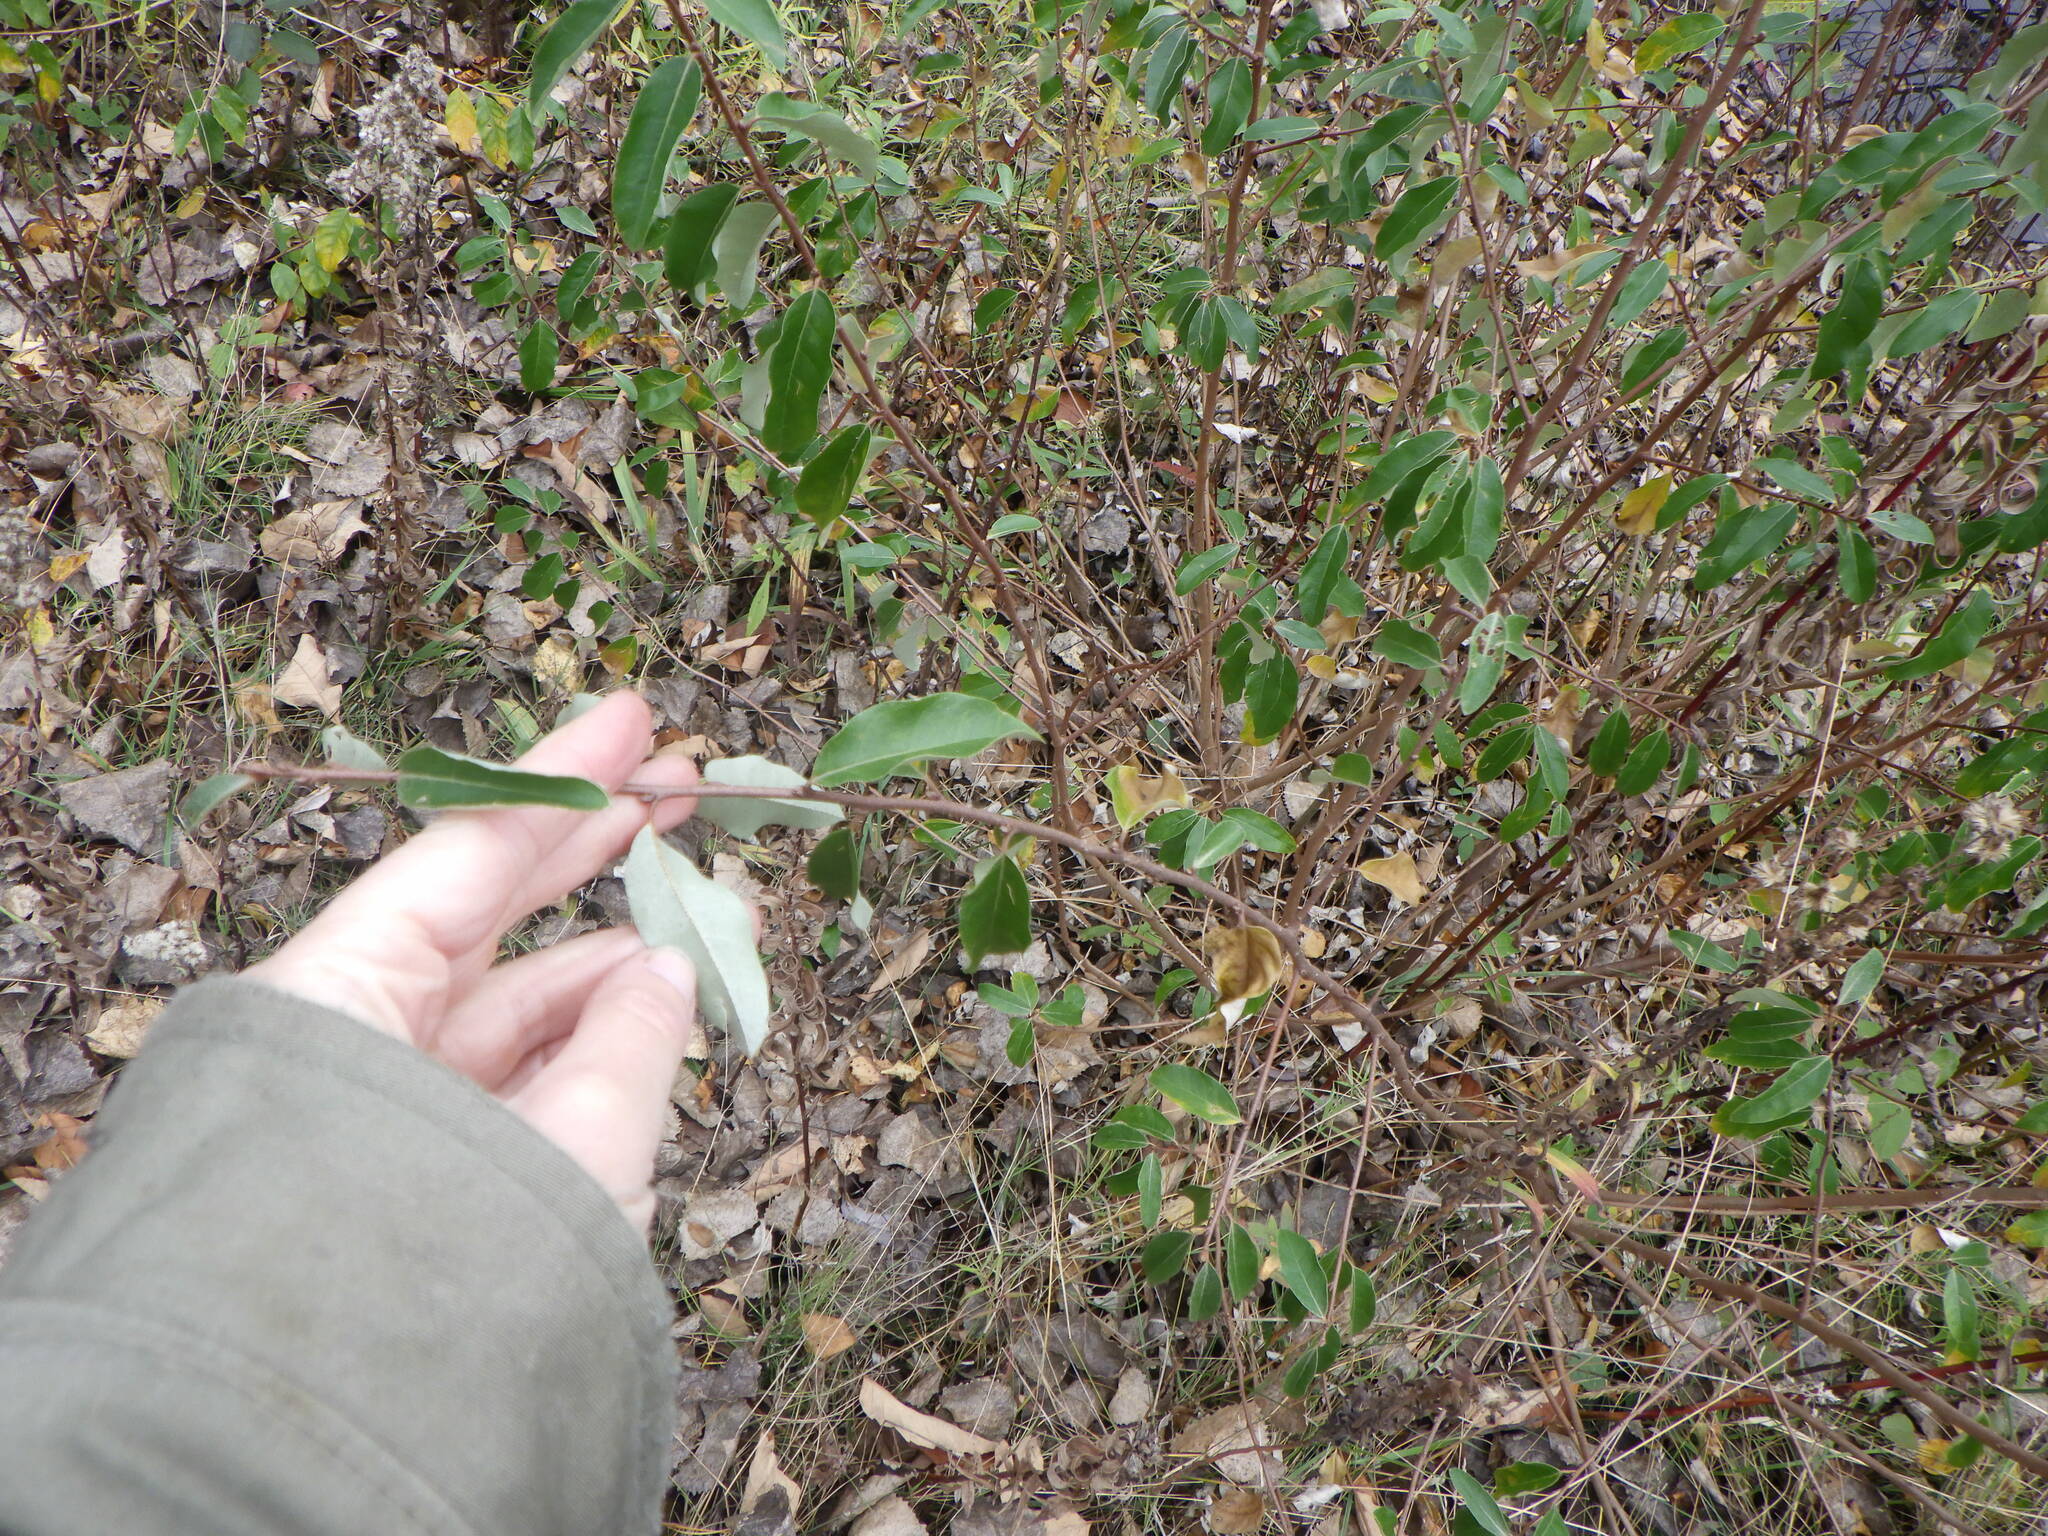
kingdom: Plantae
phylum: Tracheophyta
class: Magnoliopsida
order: Rosales
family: Elaeagnaceae
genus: Elaeagnus
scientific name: Elaeagnus umbellata
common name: Autumn olive
